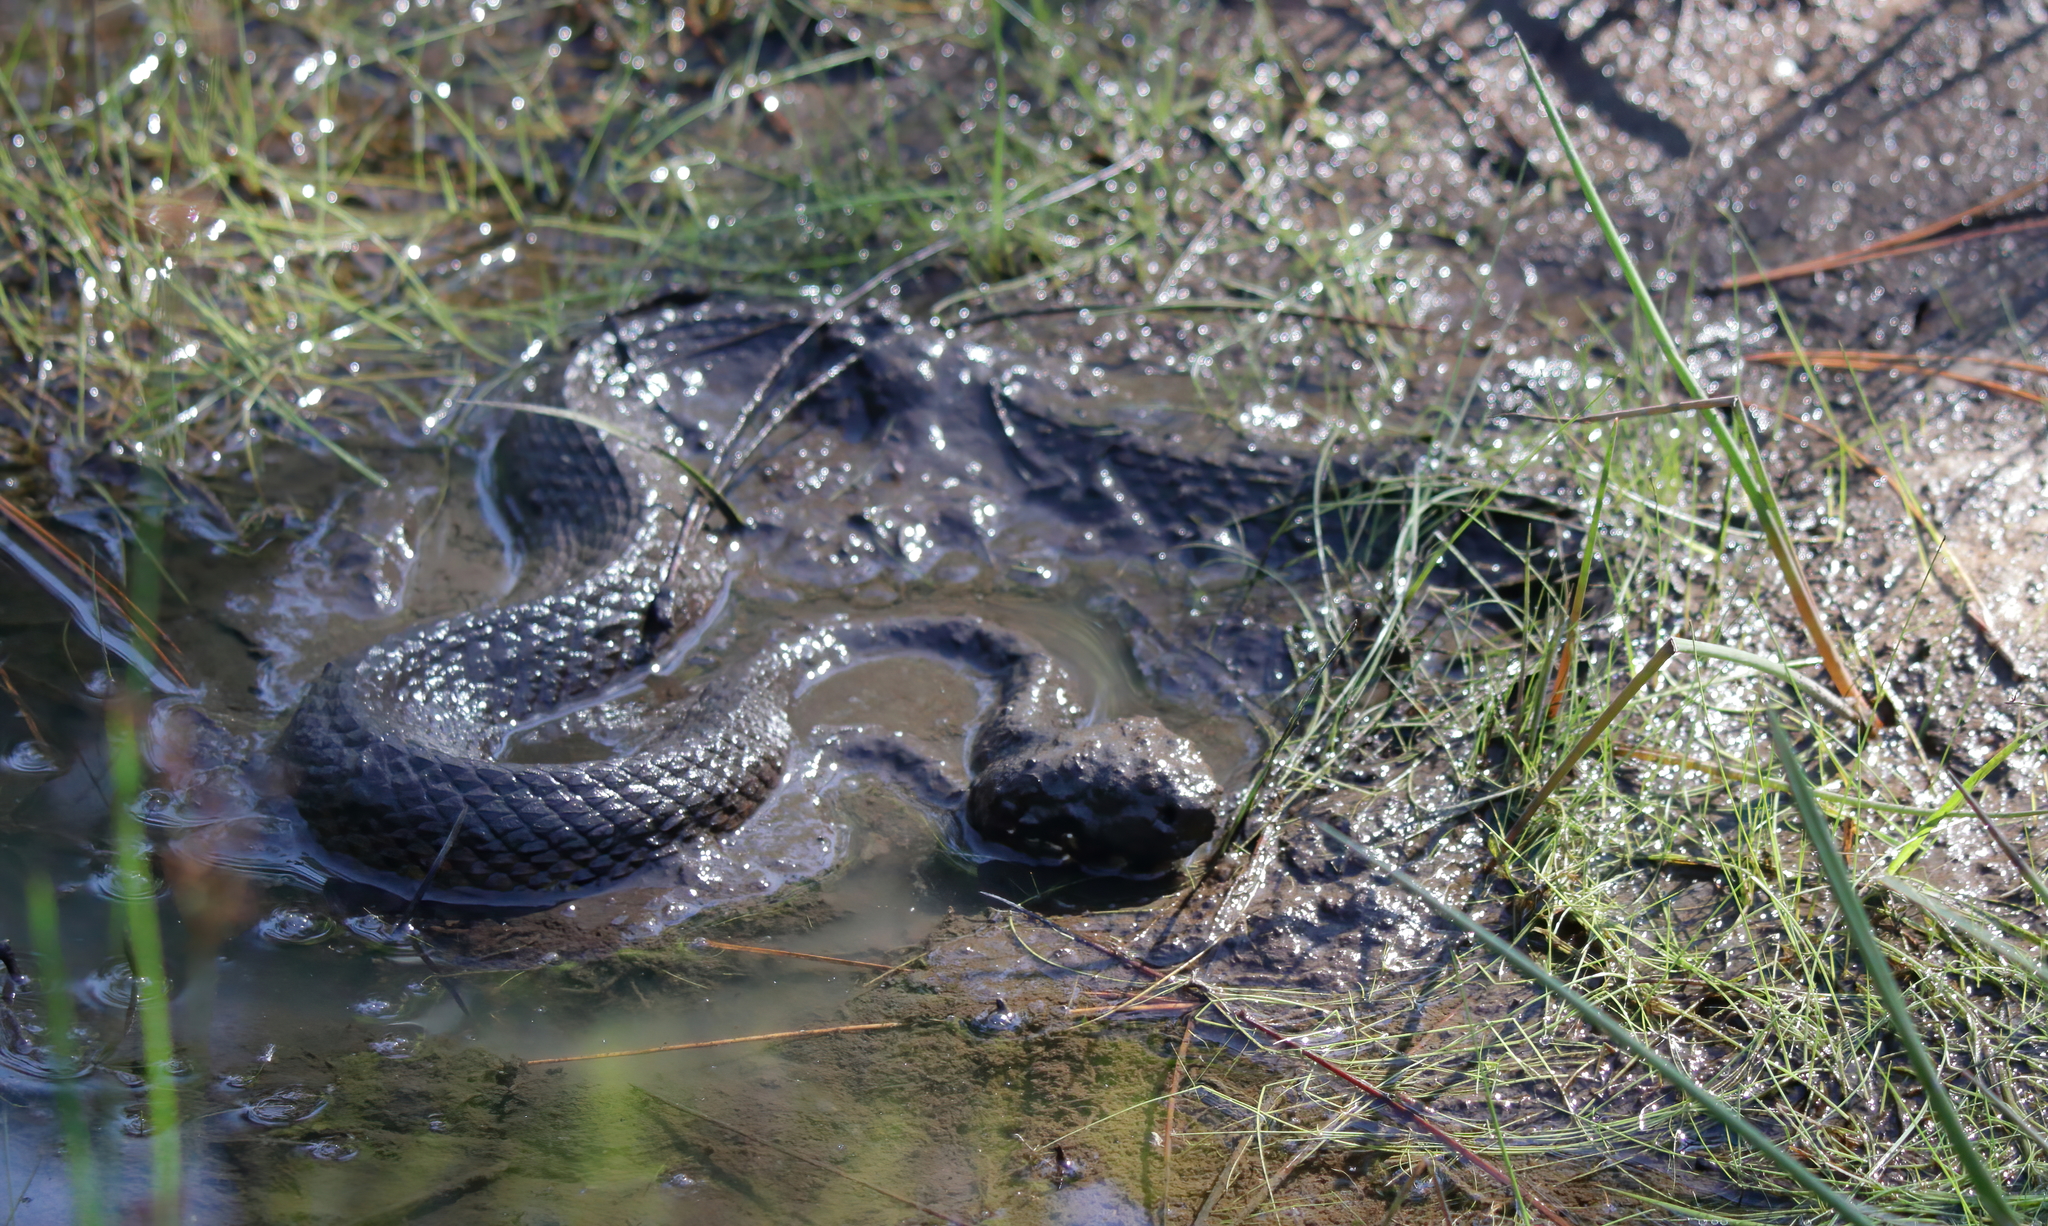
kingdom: Animalia
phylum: Chordata
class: Squamata
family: Viperidae
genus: Agkistrodon
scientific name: Agkistrodon piscivorus
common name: Cottonmouth
